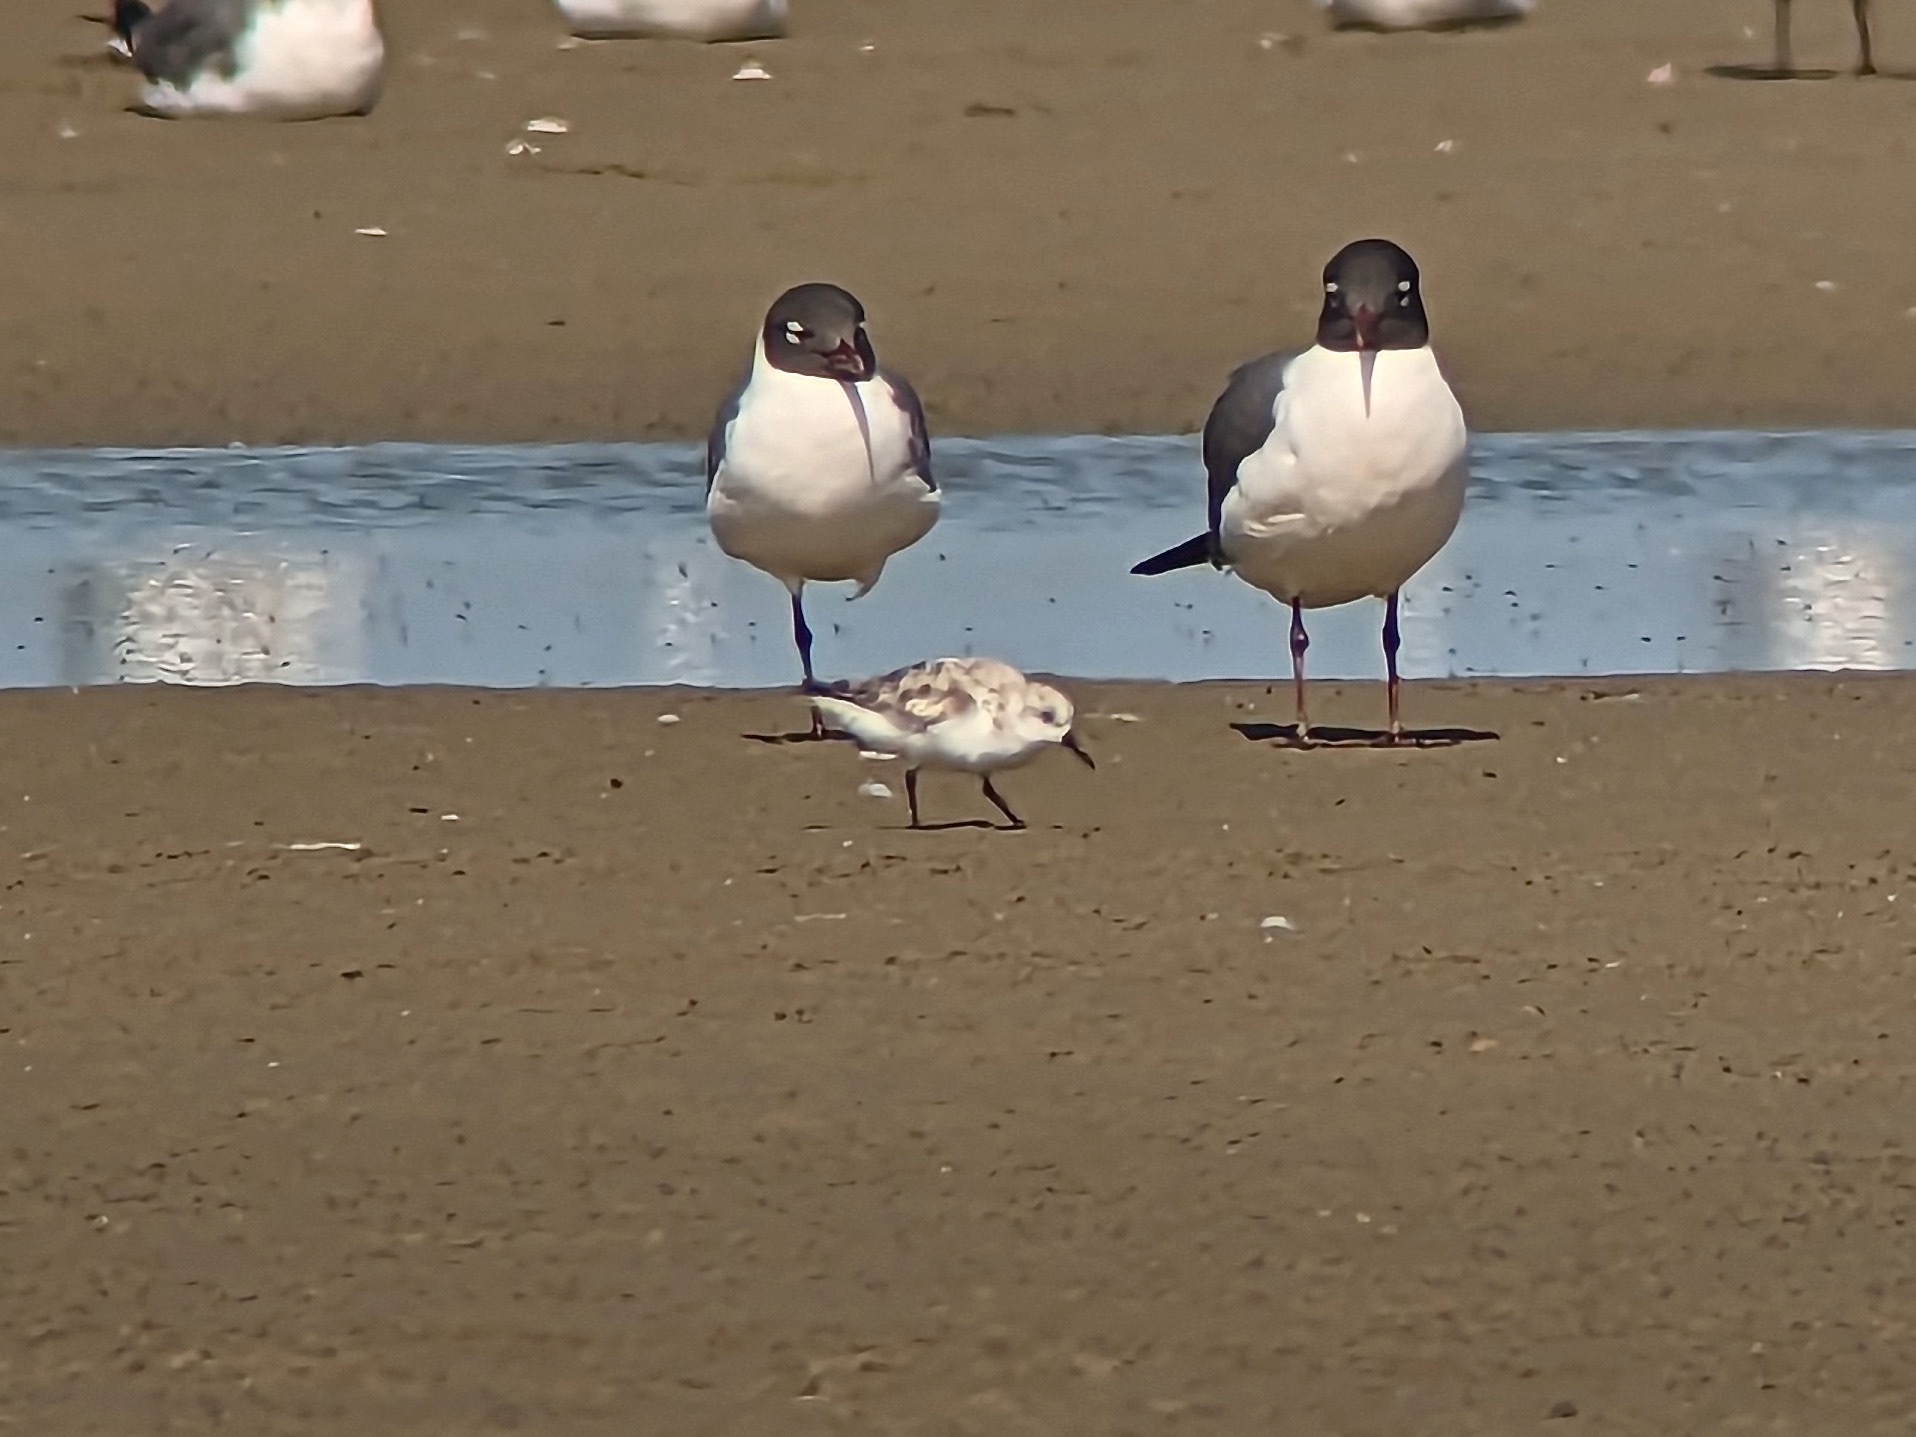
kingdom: Animalia
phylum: Chordata
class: Aves
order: Charadriiformes
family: Scolopacidae
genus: Calidris
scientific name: Calidris alba
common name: Sanderling
